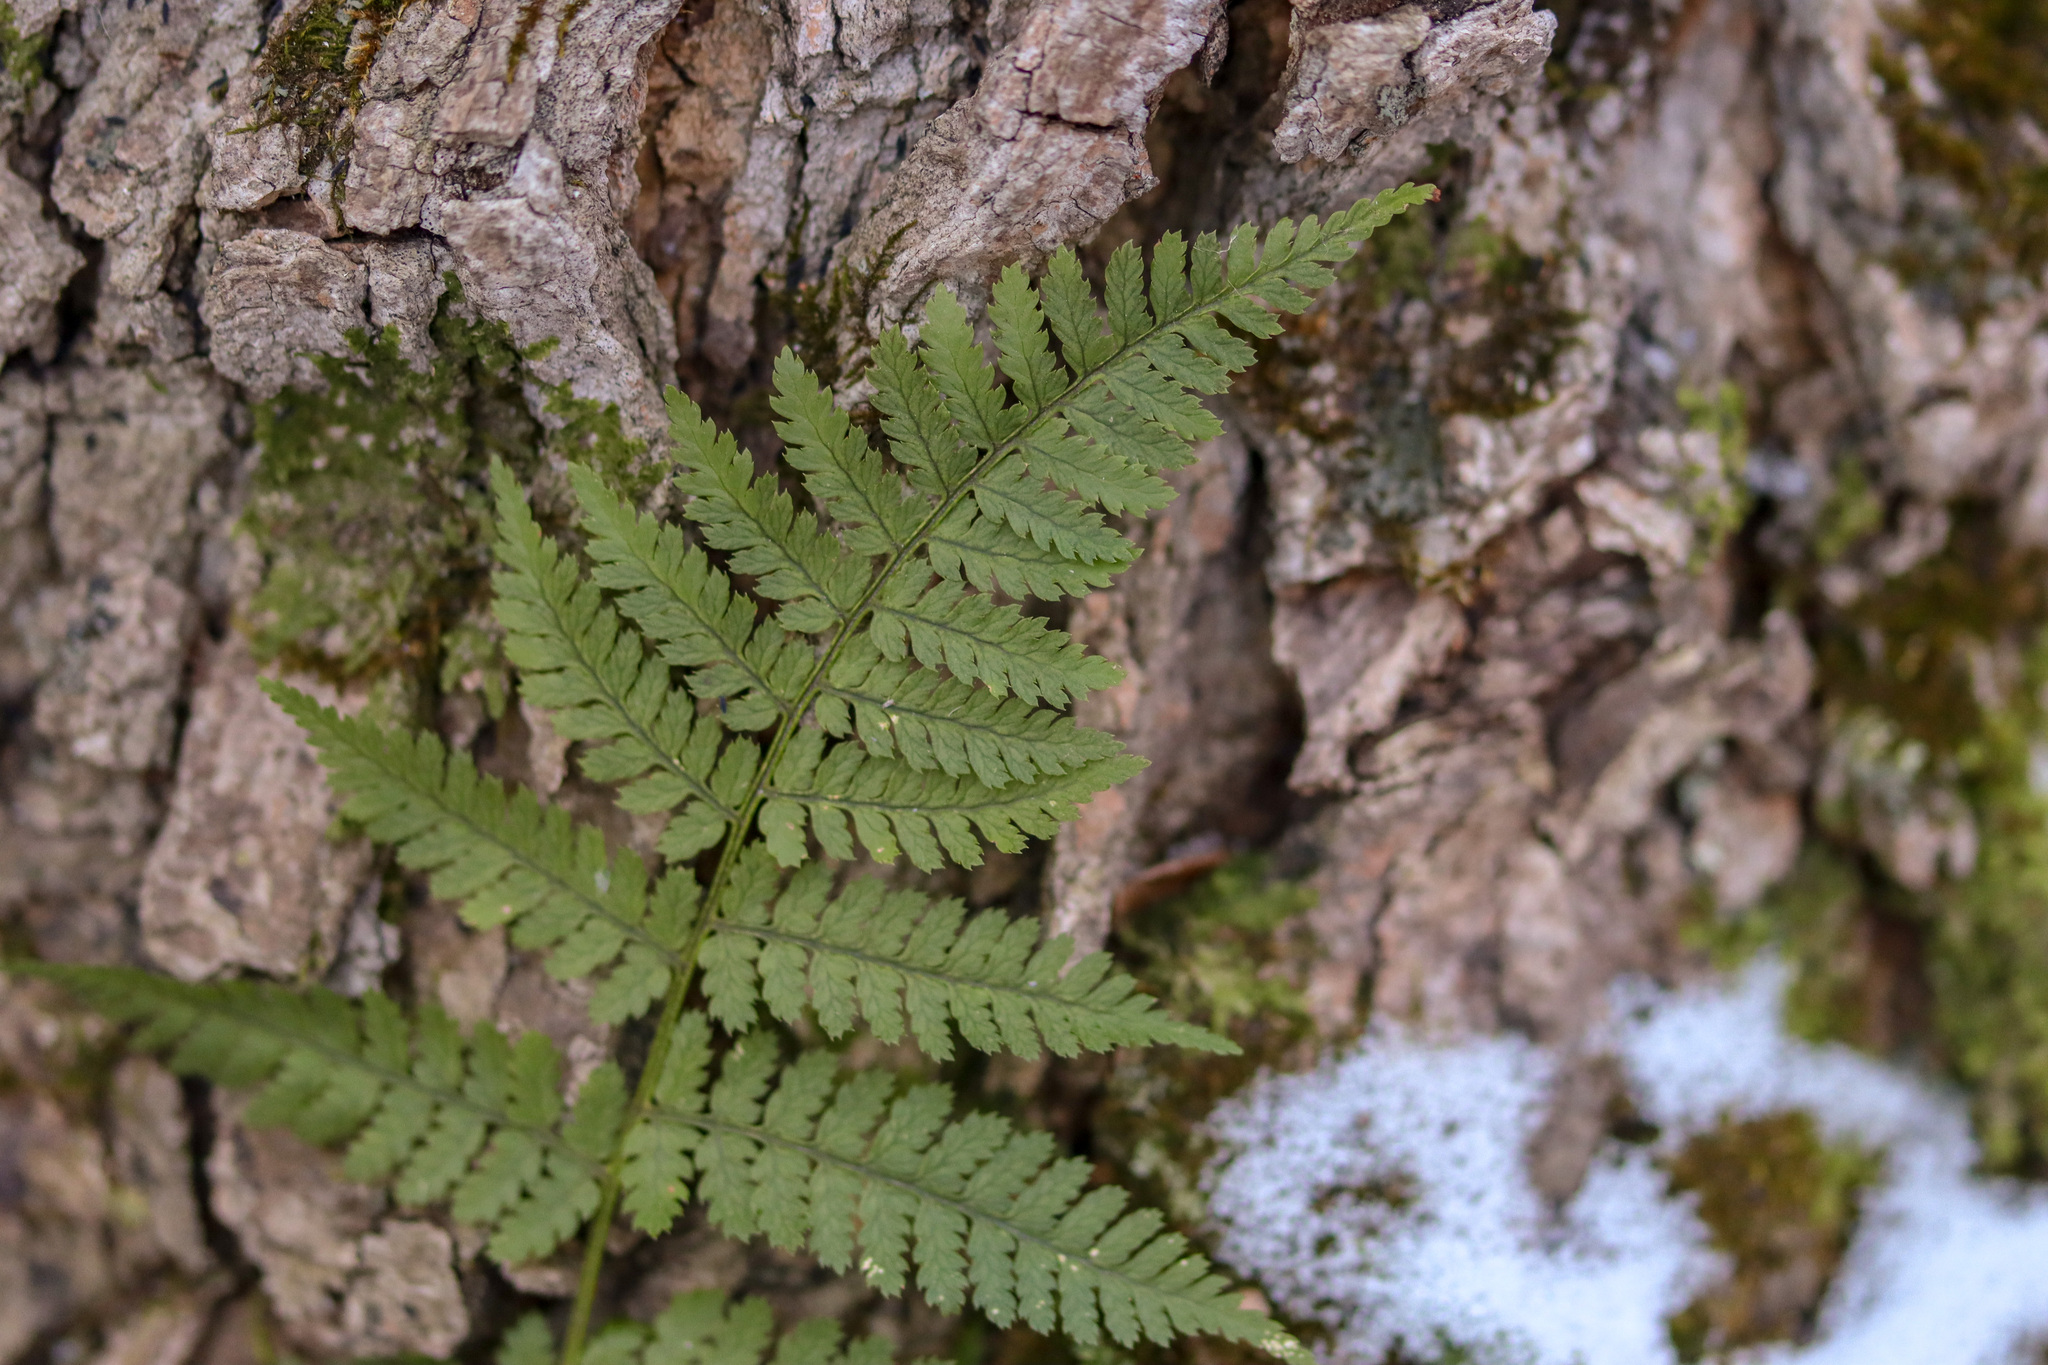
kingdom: Plantae
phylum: Tracheophyta
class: Polypodiopsida
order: Polypodiales
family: Dryopteridaceae
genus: Dryopteris
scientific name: Dryopteris intermedia
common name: Evergreen wood fern
